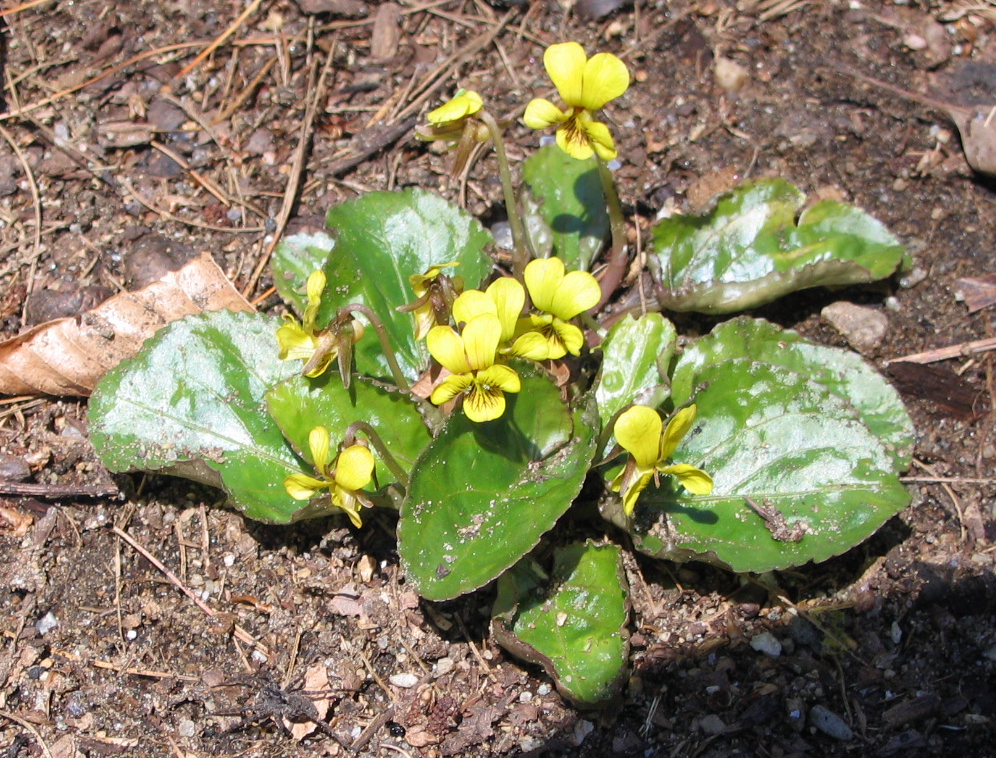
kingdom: Plantae
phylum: Tracheophyta
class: Magnoliopsida
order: Malpighiales
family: Violaceae
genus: Viola
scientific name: Viola rotundifolia
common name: Early yellow violet
